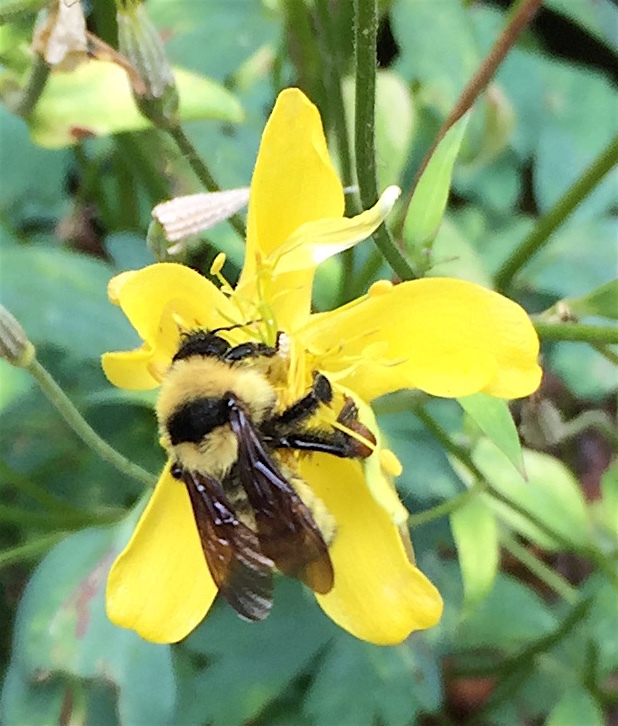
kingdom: Animalia
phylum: Arthropoda
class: Insecta
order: Hymenoptera
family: Apidae
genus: Bombus
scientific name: Bombus fervidus
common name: Yellow bumble bee
